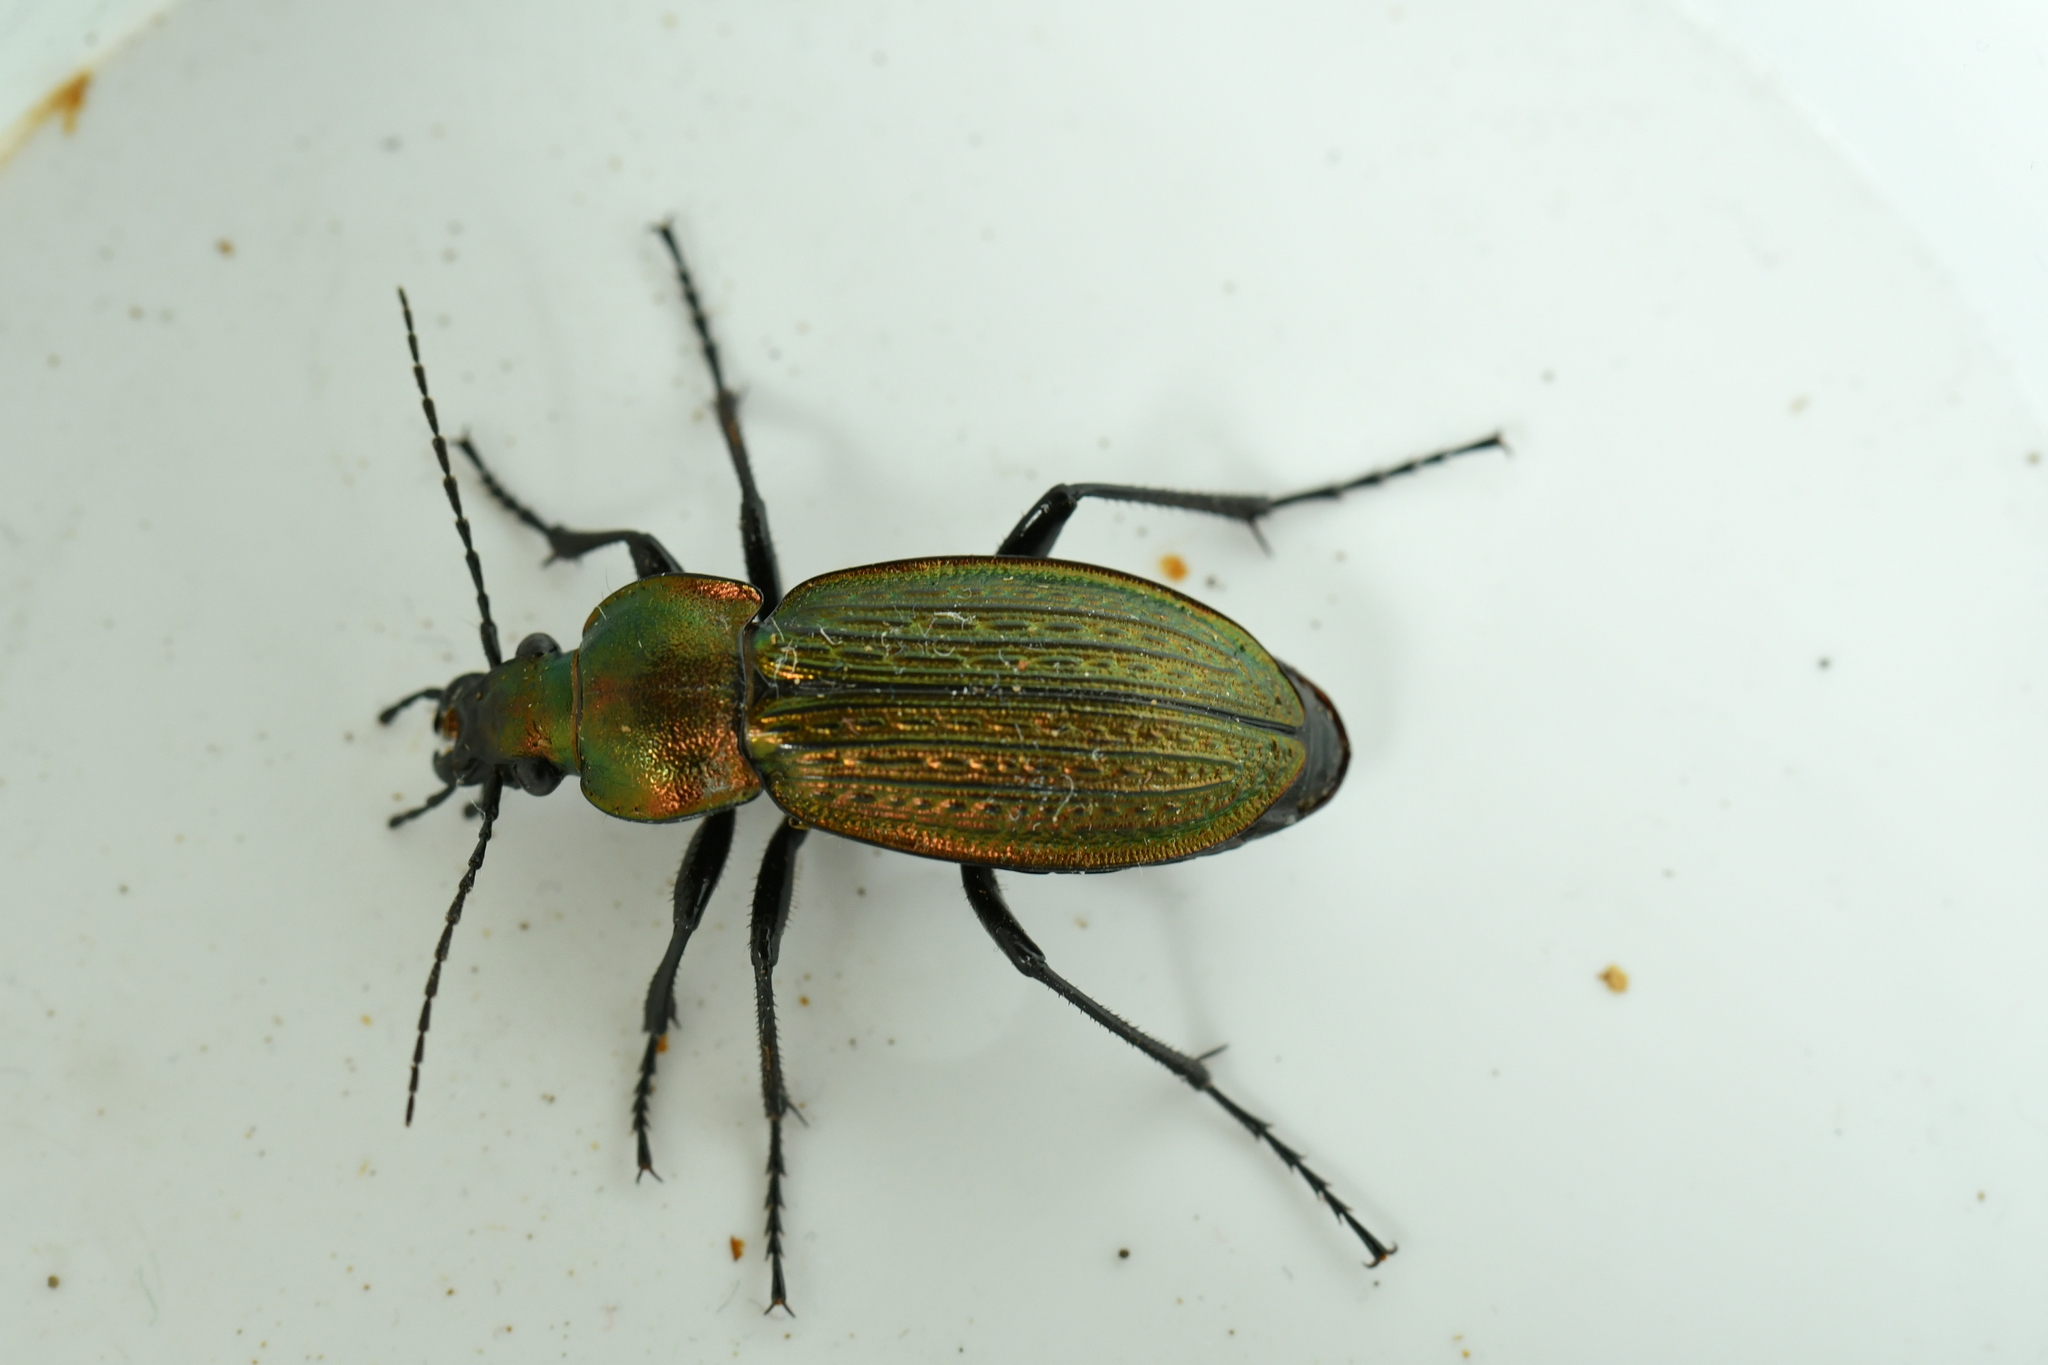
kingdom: Animalia
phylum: Arthropoda
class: Insecta
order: Coleoptera
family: Carabidae
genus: Carabus
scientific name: Carabus monilis
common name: Necklace ground beetle
